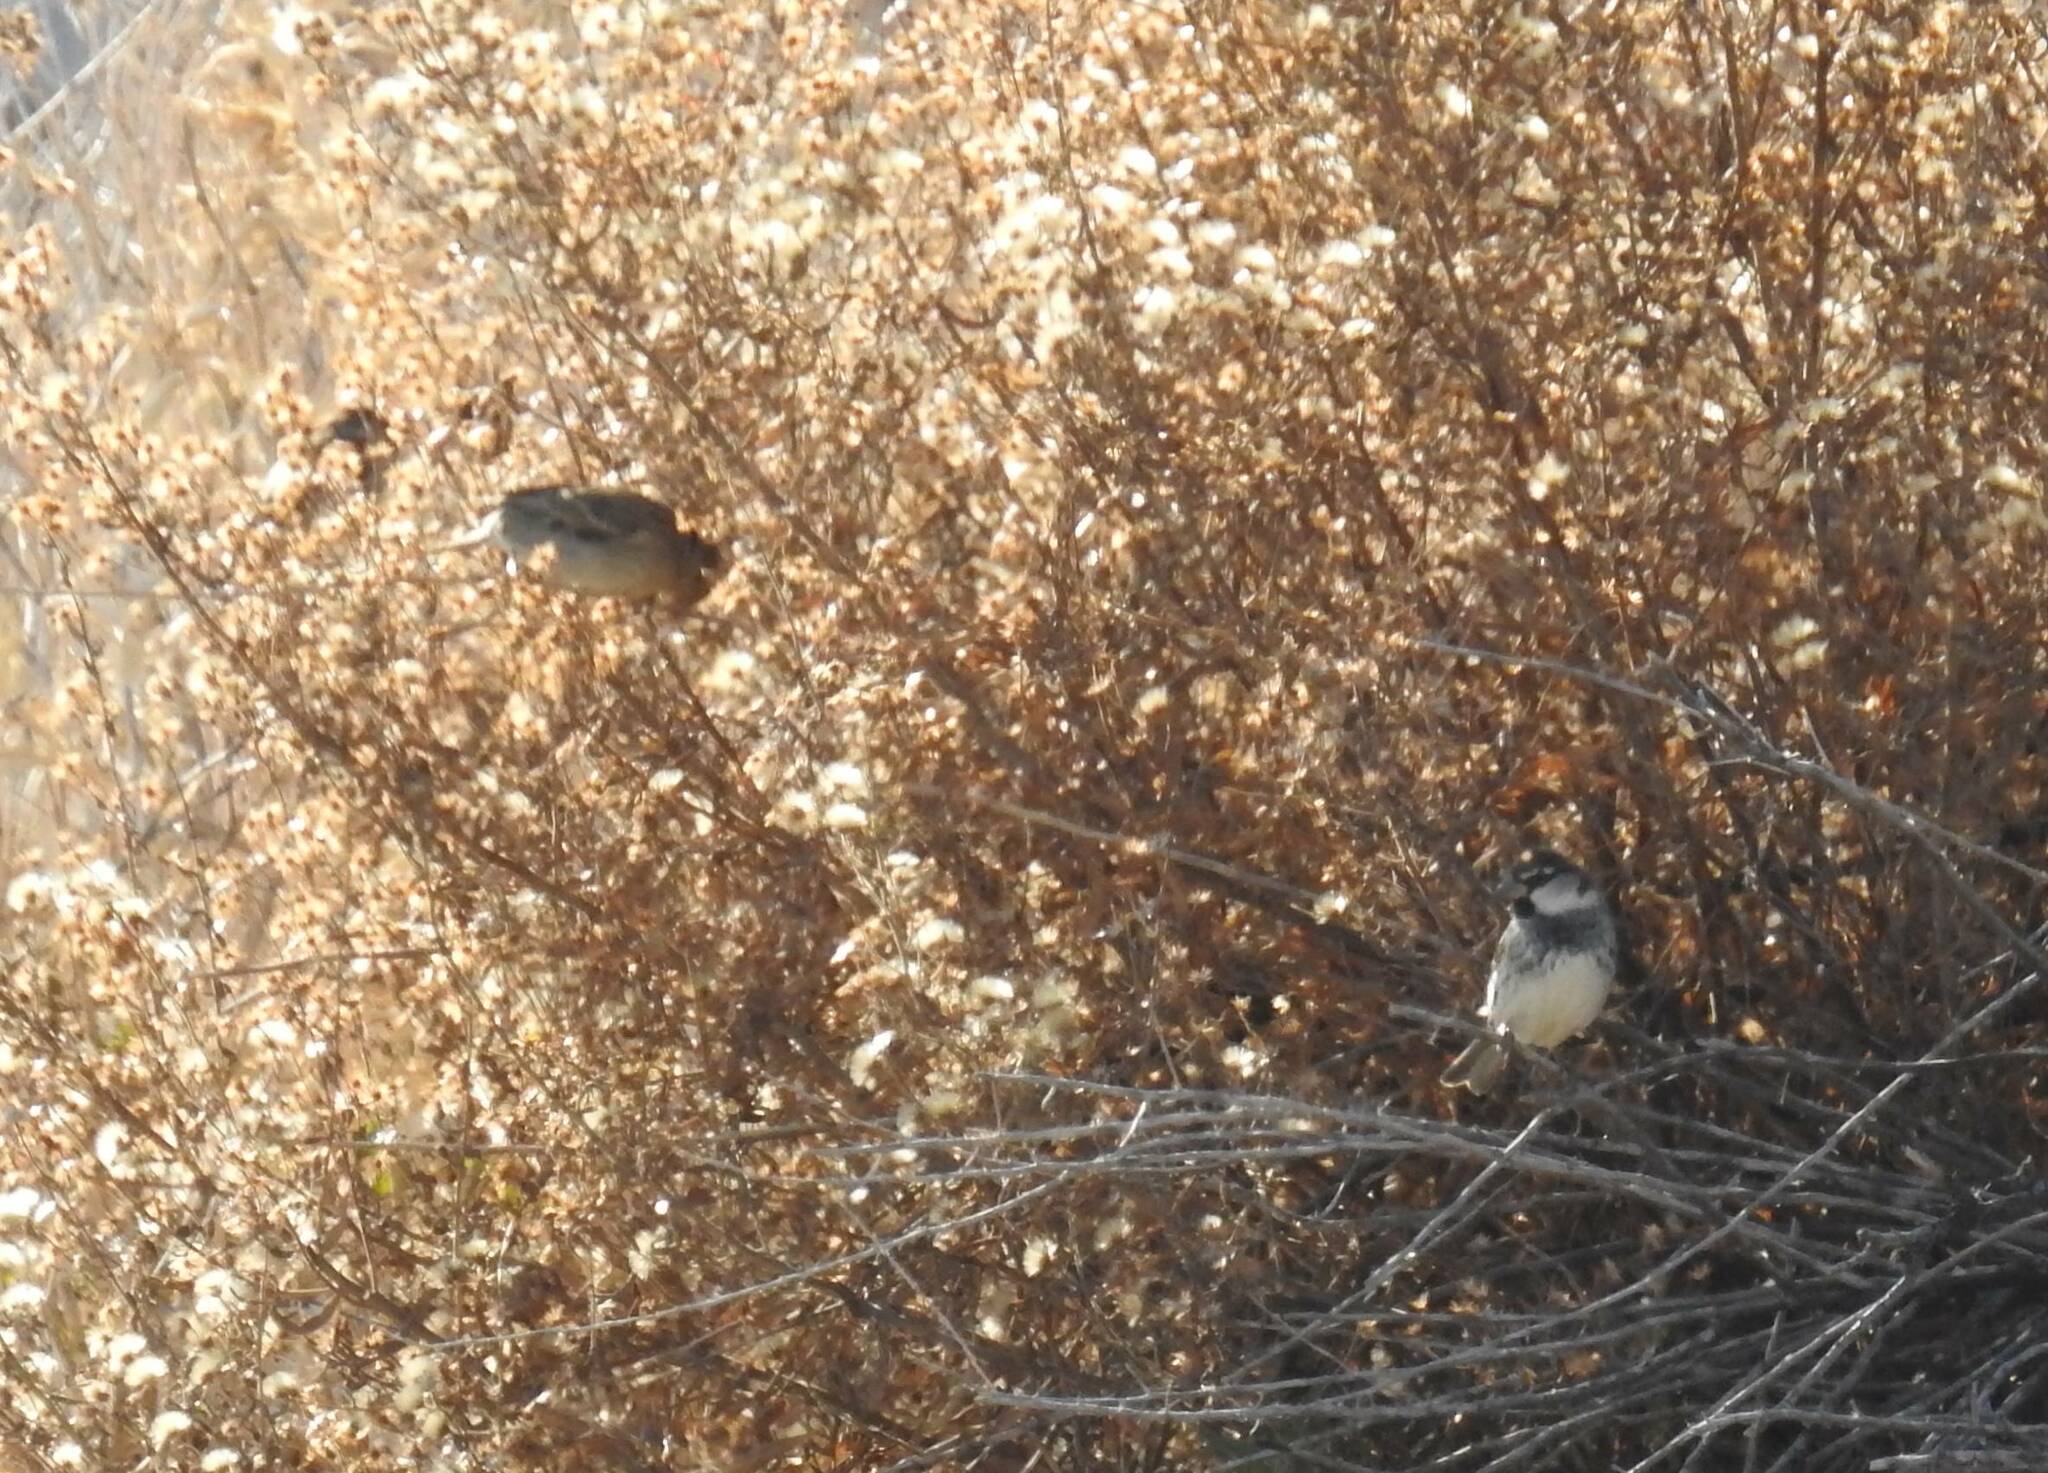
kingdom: Animalia
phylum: Chordata
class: Aves
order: Passeriformes
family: Passeridae
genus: Passer
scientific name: Passer hispaniolensis
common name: Spanish sparrow
